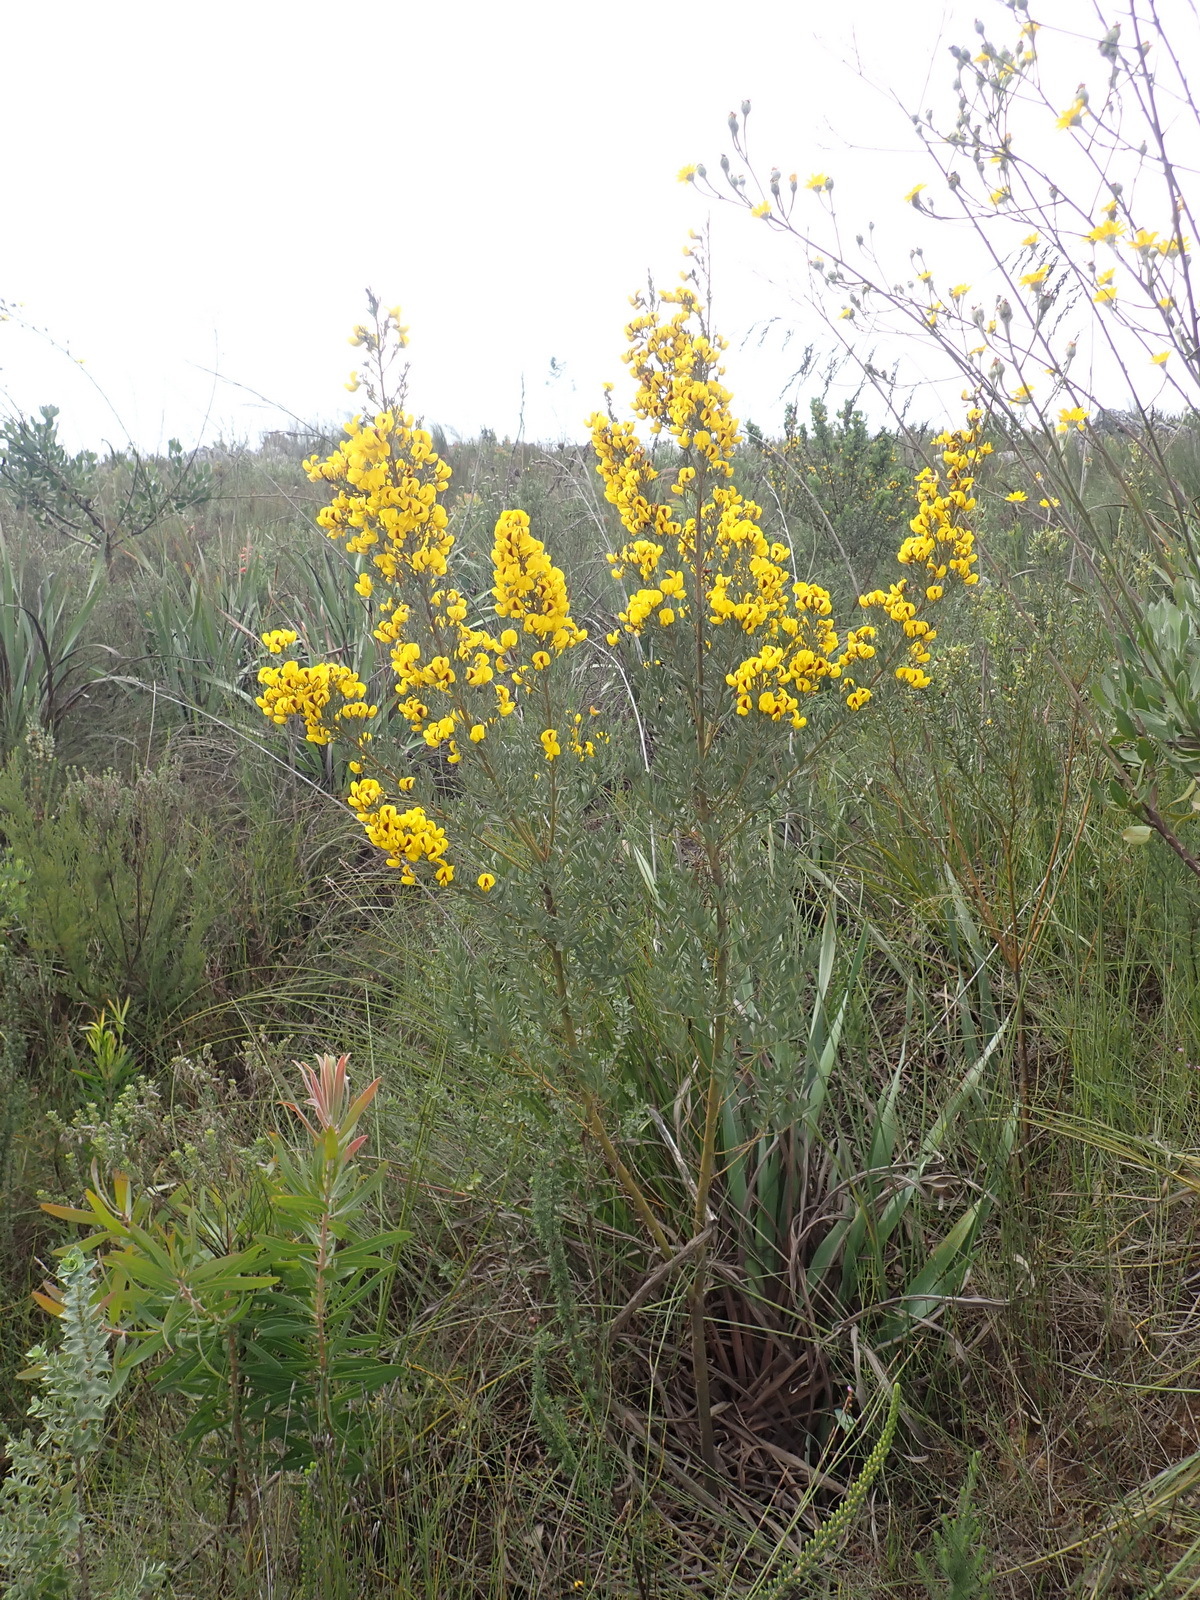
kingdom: Plantae
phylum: Tracheophyta
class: Magnoliopsida
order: Fabales
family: Fabaceae
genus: Cyclopia
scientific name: Cyclopia subternata
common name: Honeybush tea
